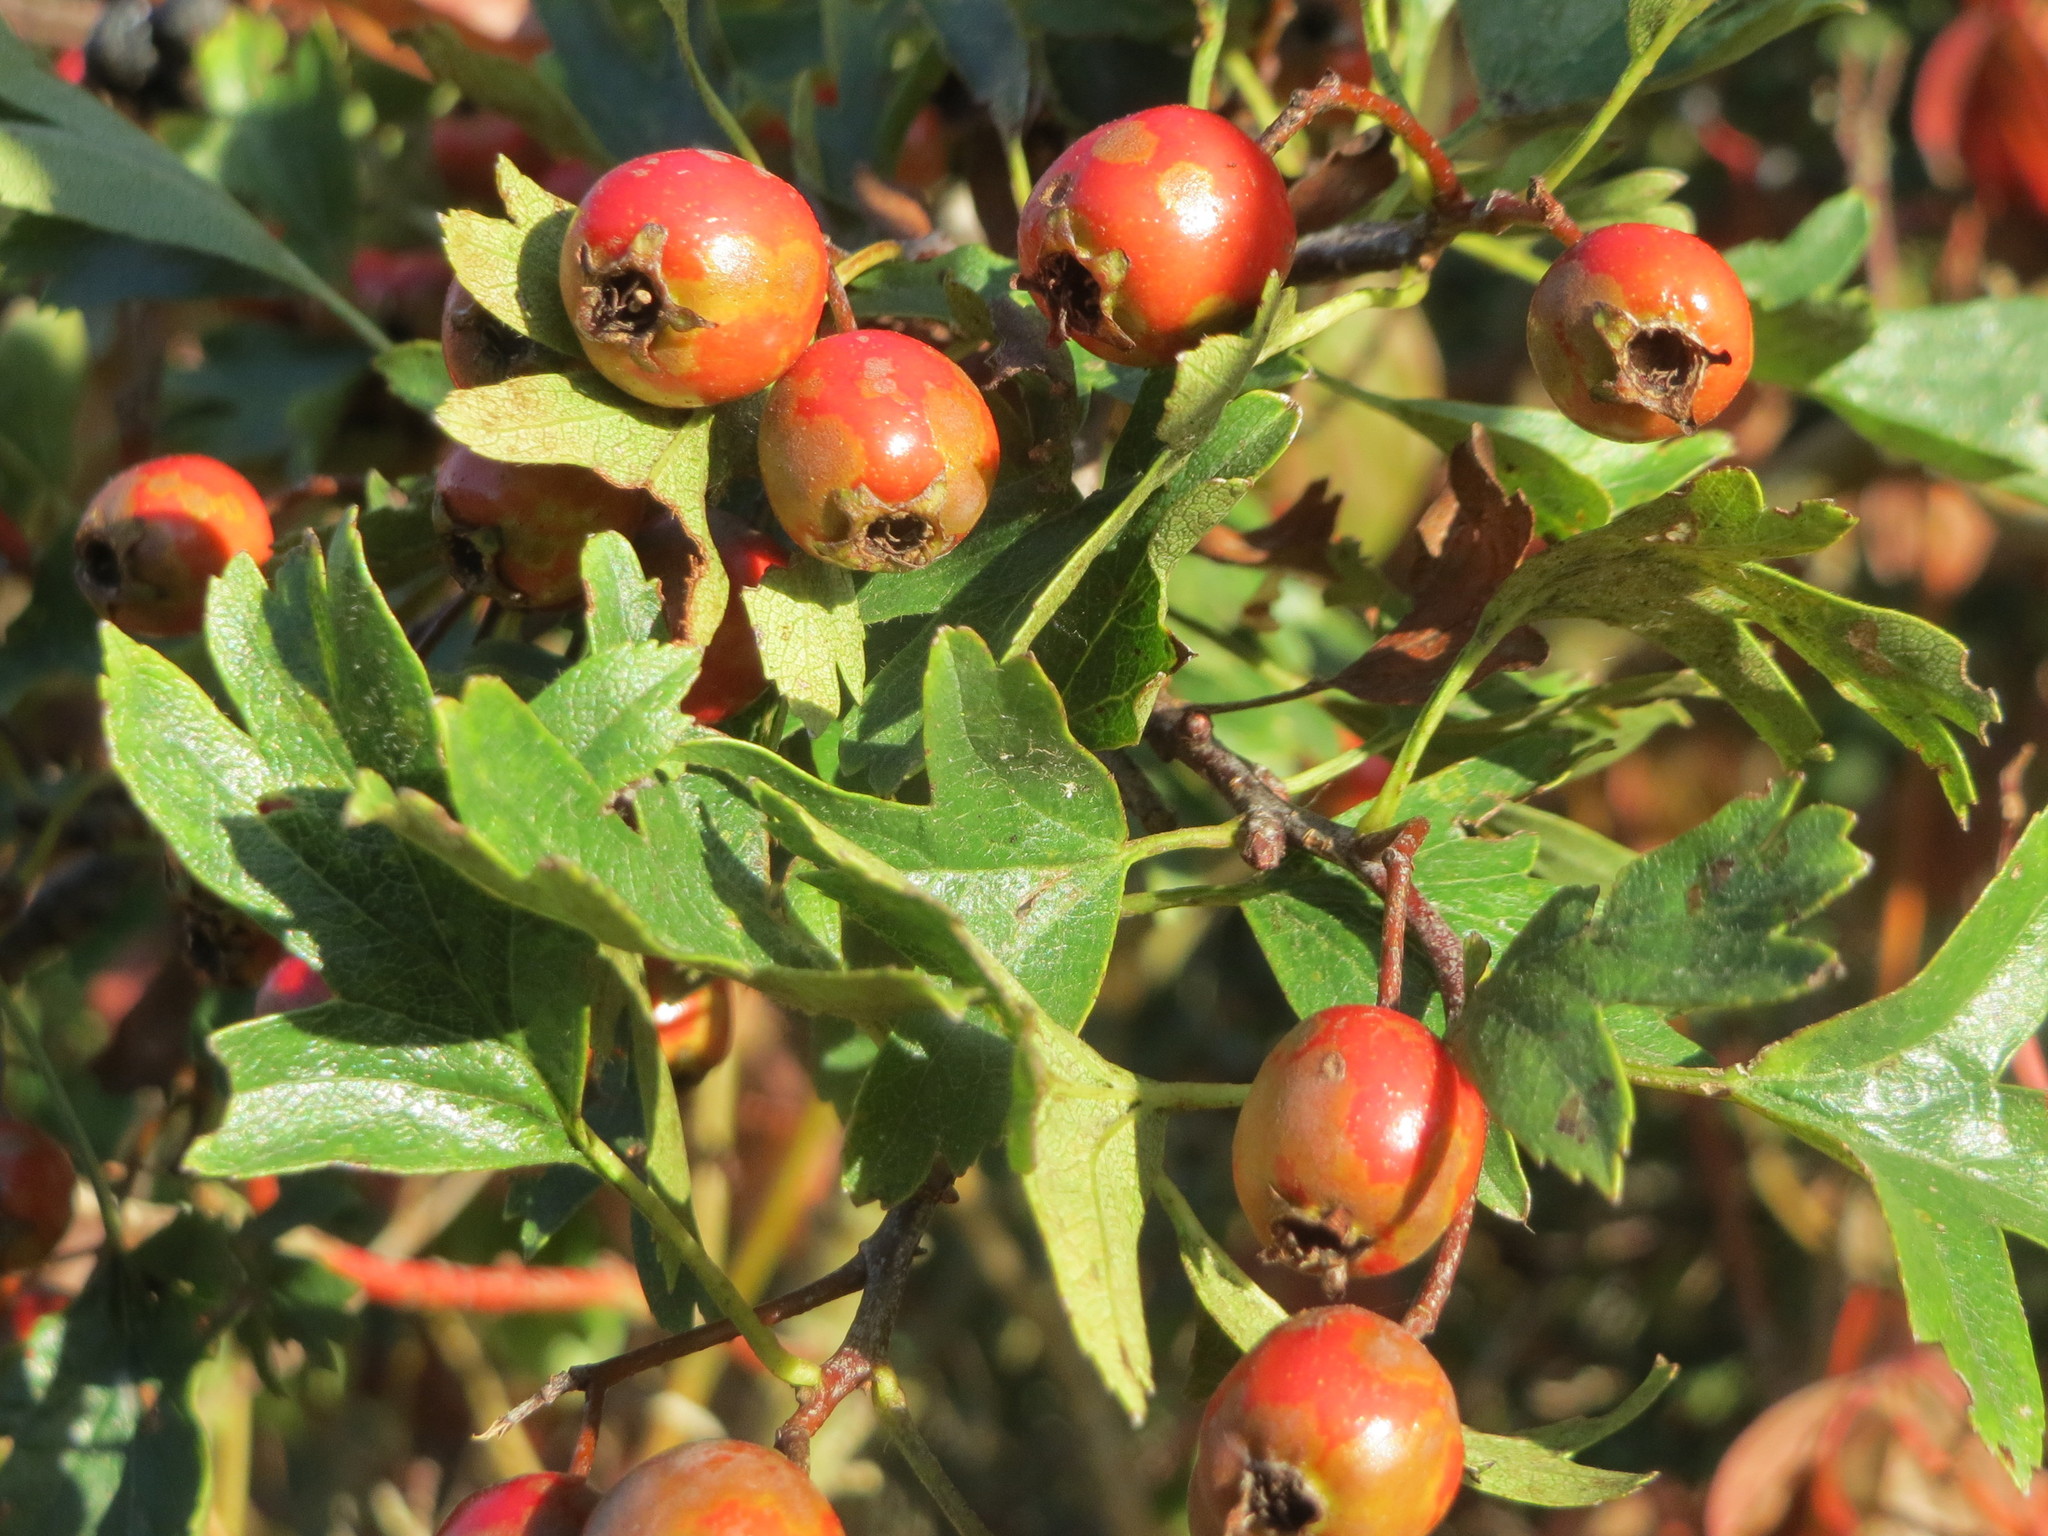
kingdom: Plantae
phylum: Tracheophyta
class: Magnoliopsida
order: Rosales
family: Rosaceae
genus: Crataegus
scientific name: Crataegus monogyna
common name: Hawthorn
